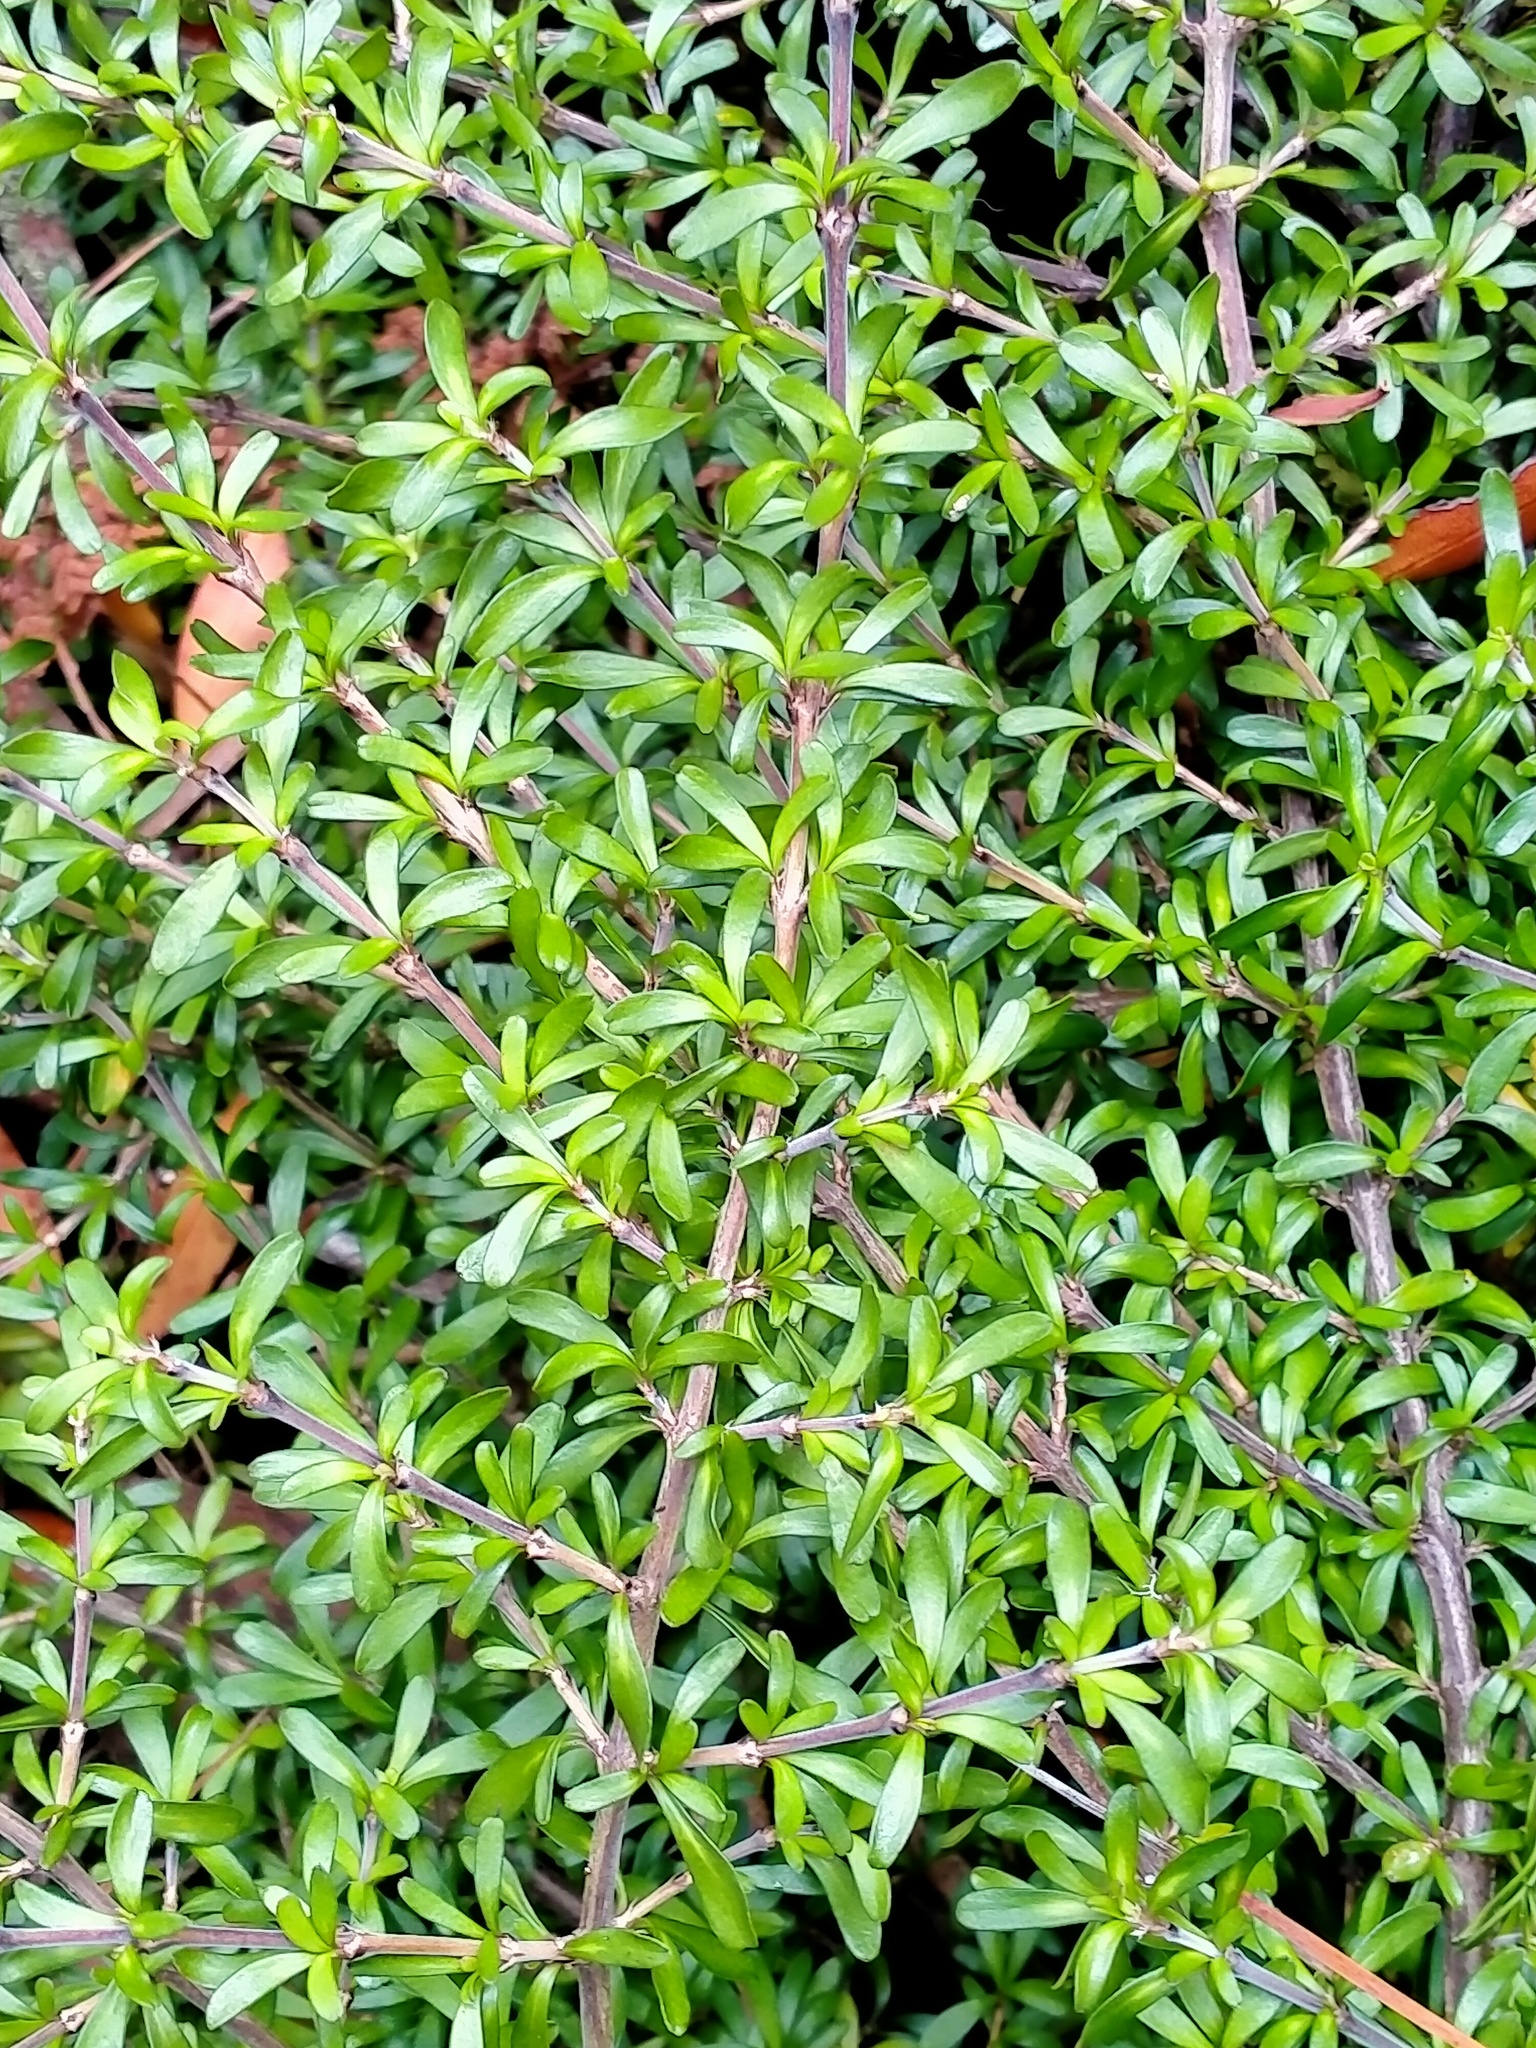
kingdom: Plantae
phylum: Tracheophyta
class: Magnoliopsida
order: Gentianales
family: Rubiaceae
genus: Coprosma
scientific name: Coprosma propinqua
